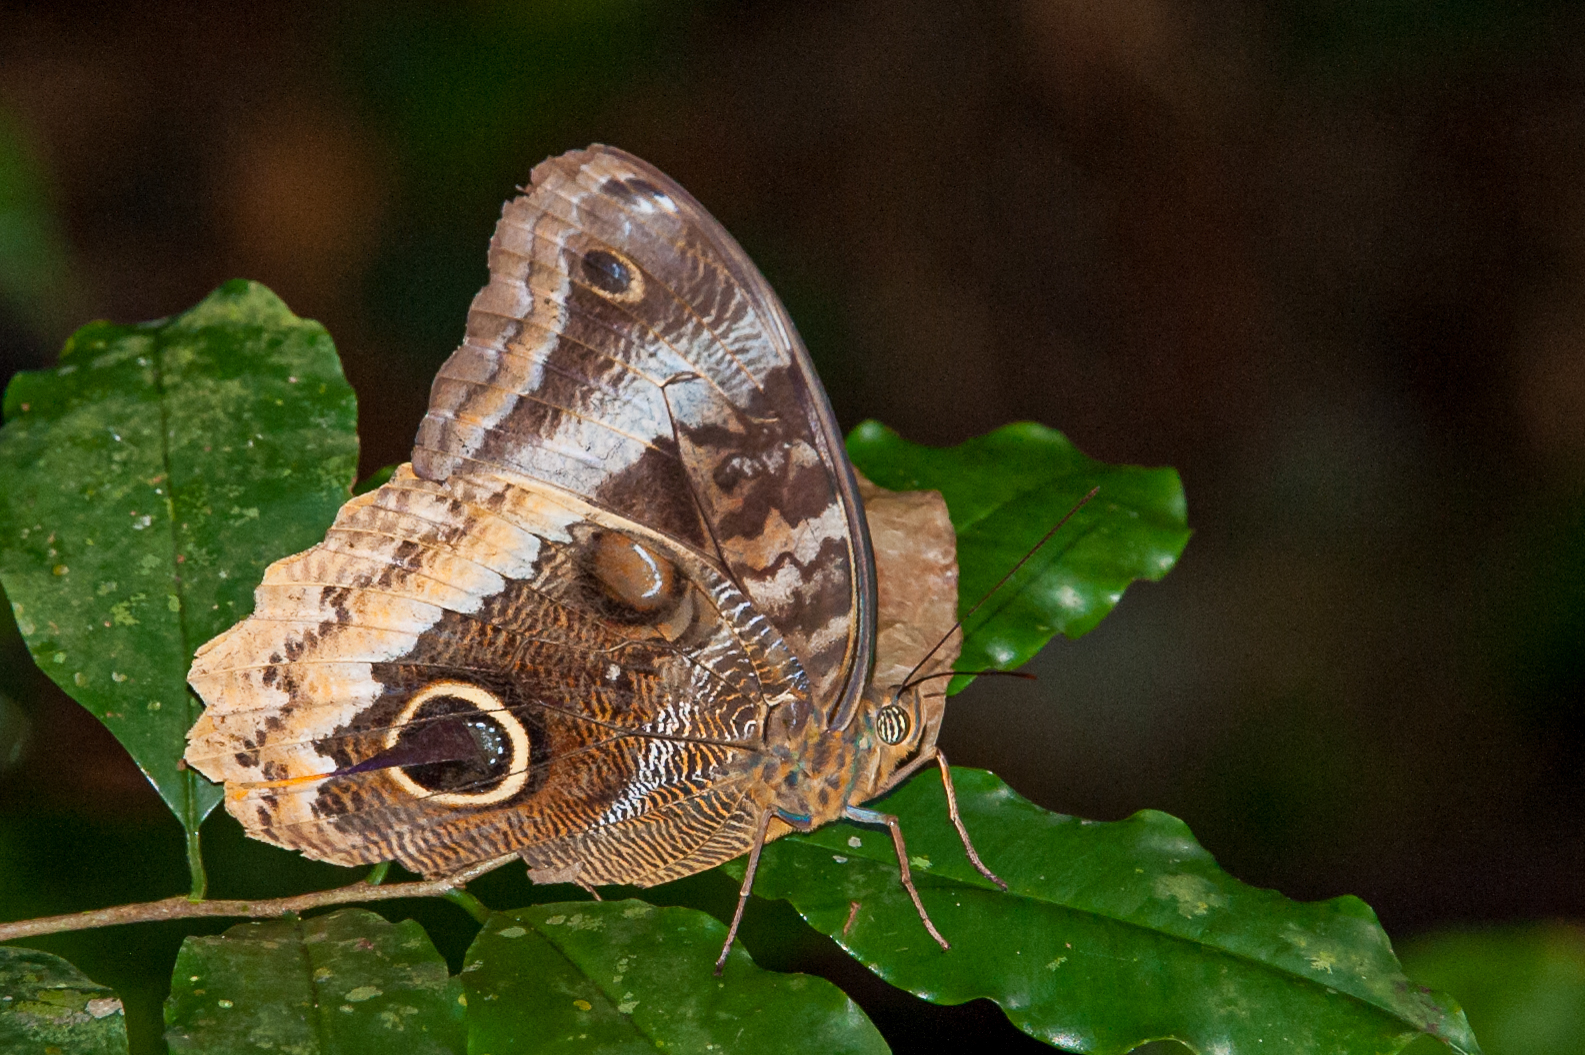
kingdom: Animalia
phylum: Arthropoda
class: Insecta
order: Lepidoptera
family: Nymphalidae
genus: Caligo
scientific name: Caligo uranus
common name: Gold-edged owl-butterfly
